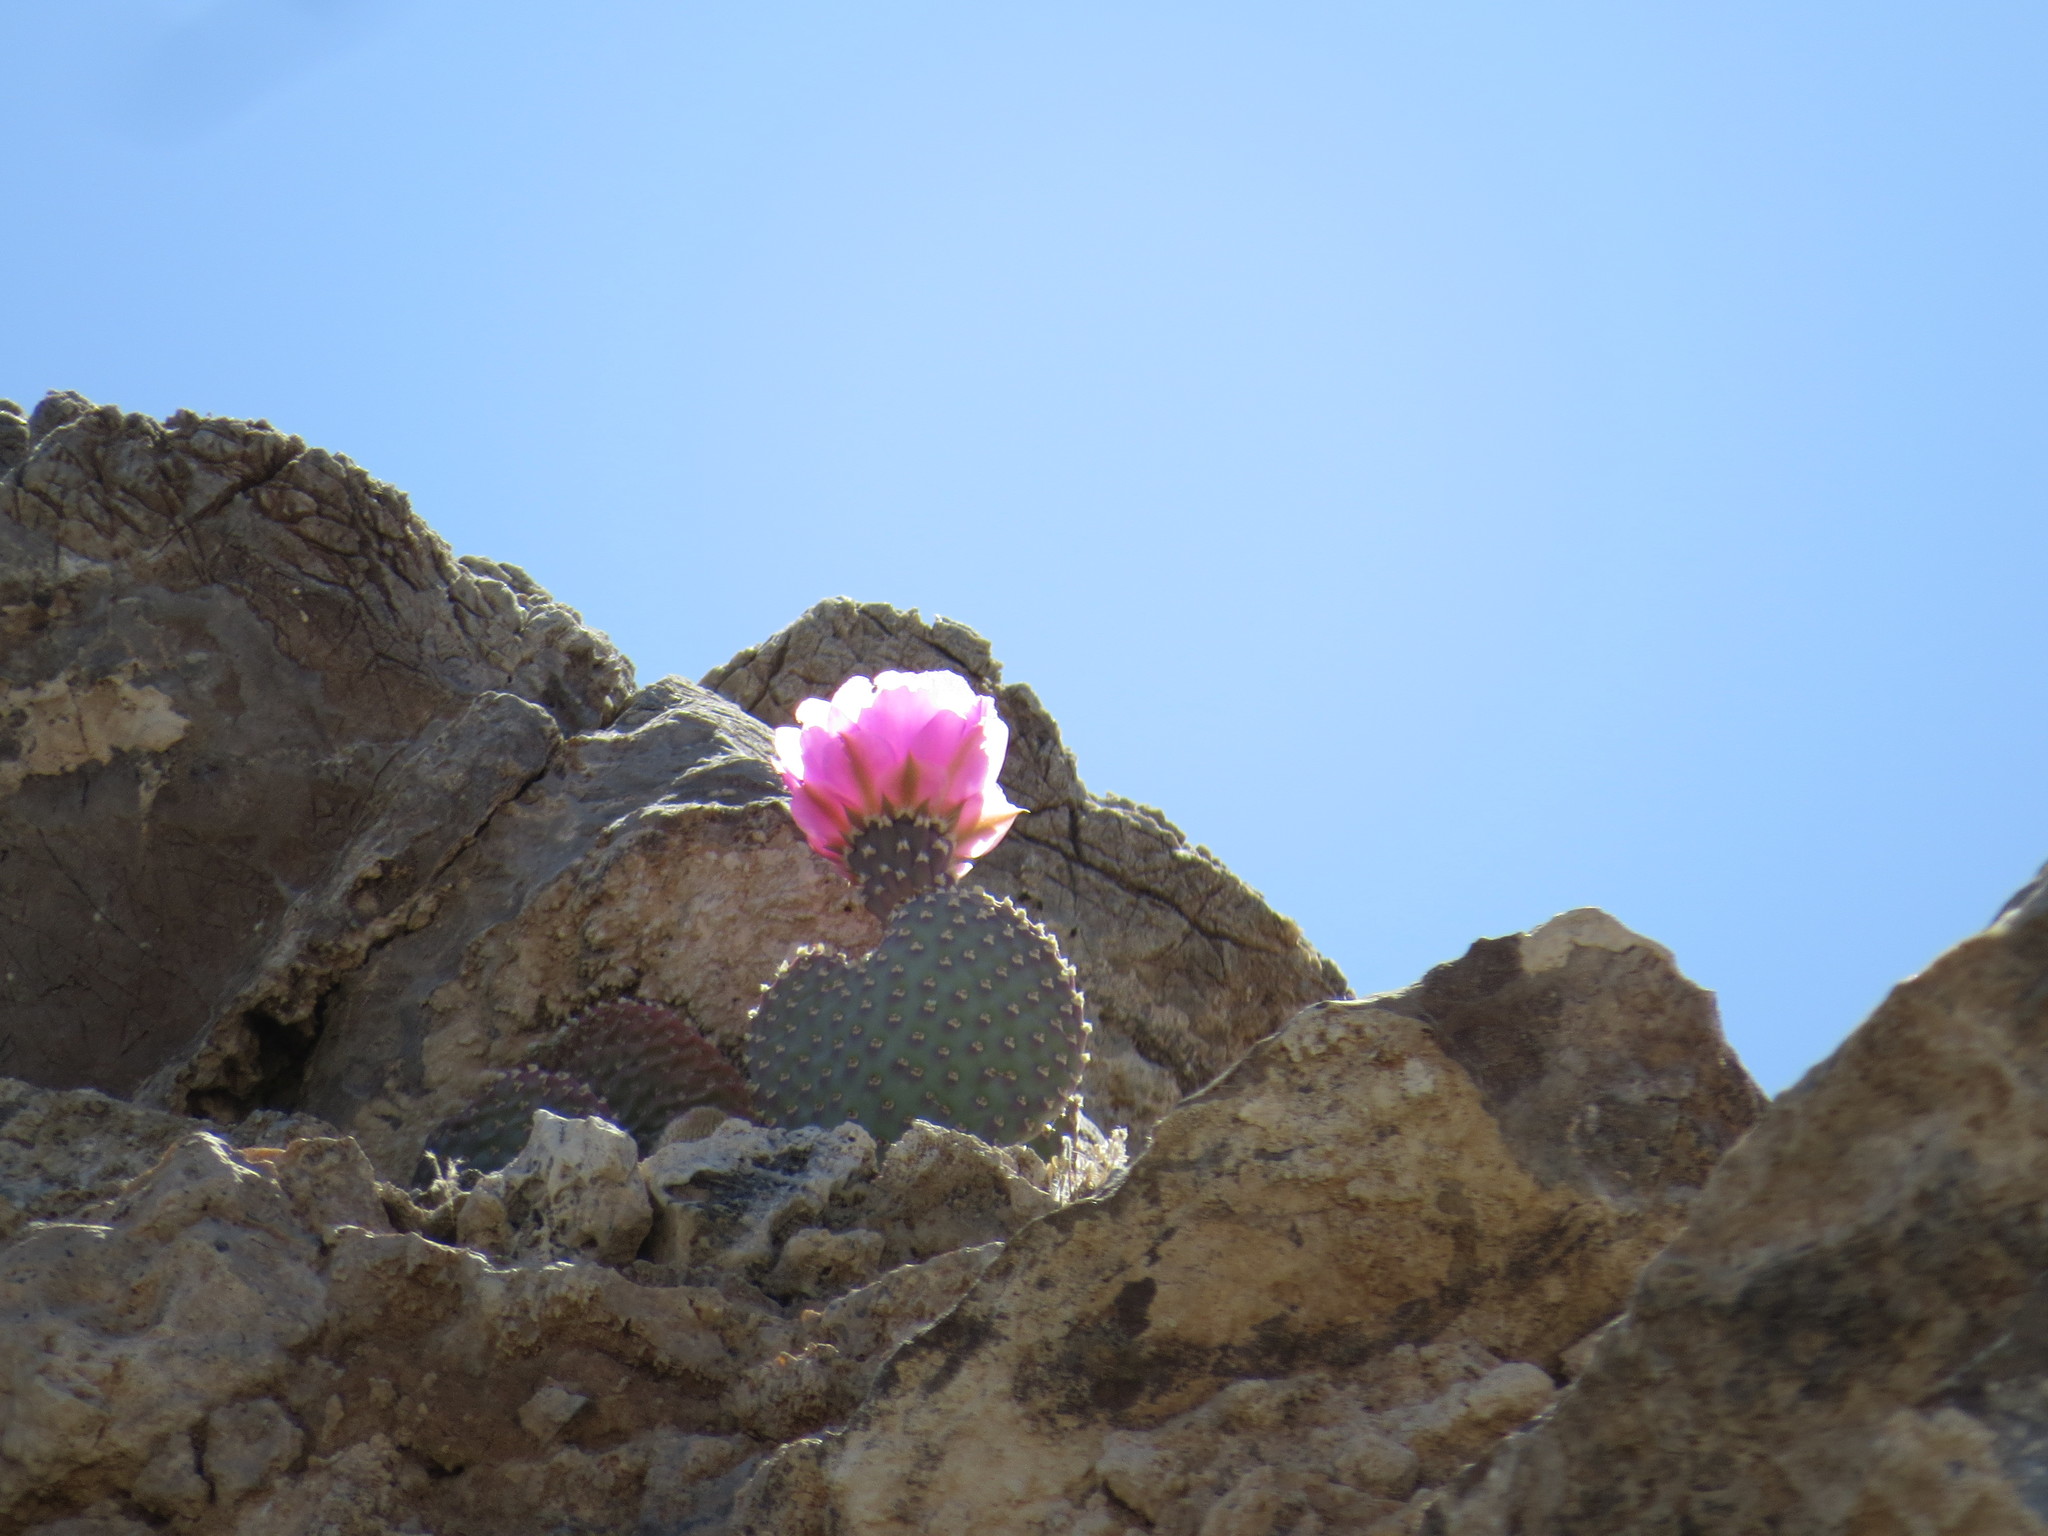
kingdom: Plantae
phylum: Tracheophyta
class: Magnoliopsida
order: Caryophyllales
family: Cactaceae
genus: Opuntia
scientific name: Opuntia basilaris
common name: Beavertail prickly-pear
